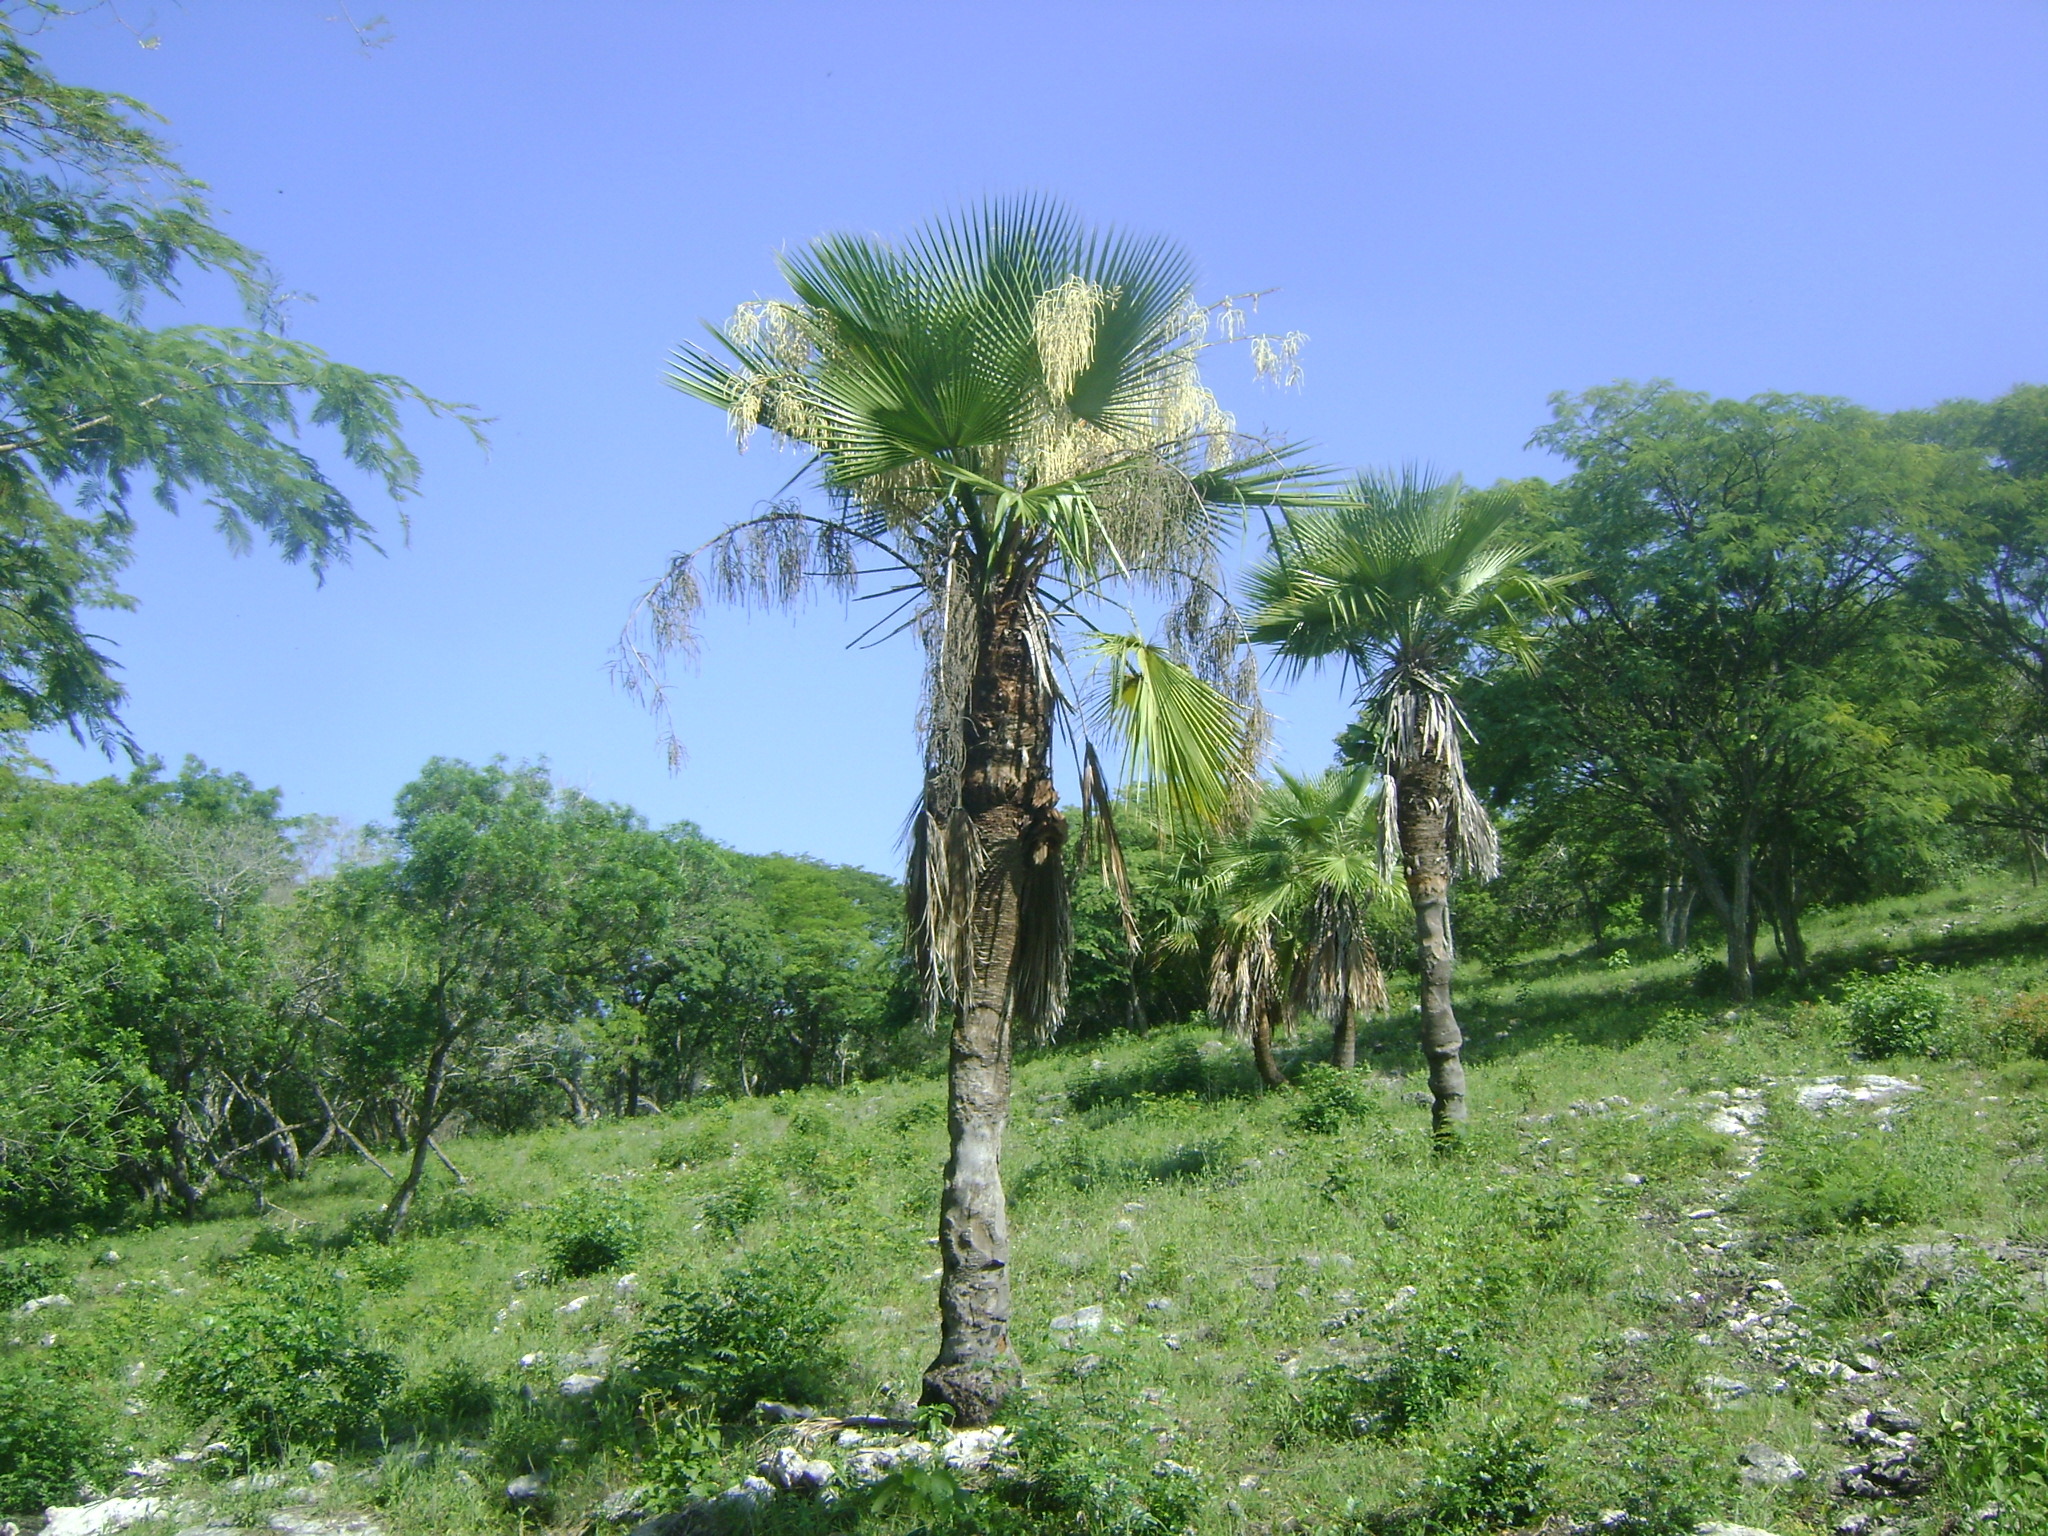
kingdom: Plantae
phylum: Tracheophyta
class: Liliopsida
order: Arecales
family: Arecaceae
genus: Brahea
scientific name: Brahea dulcis
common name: Apak palm
